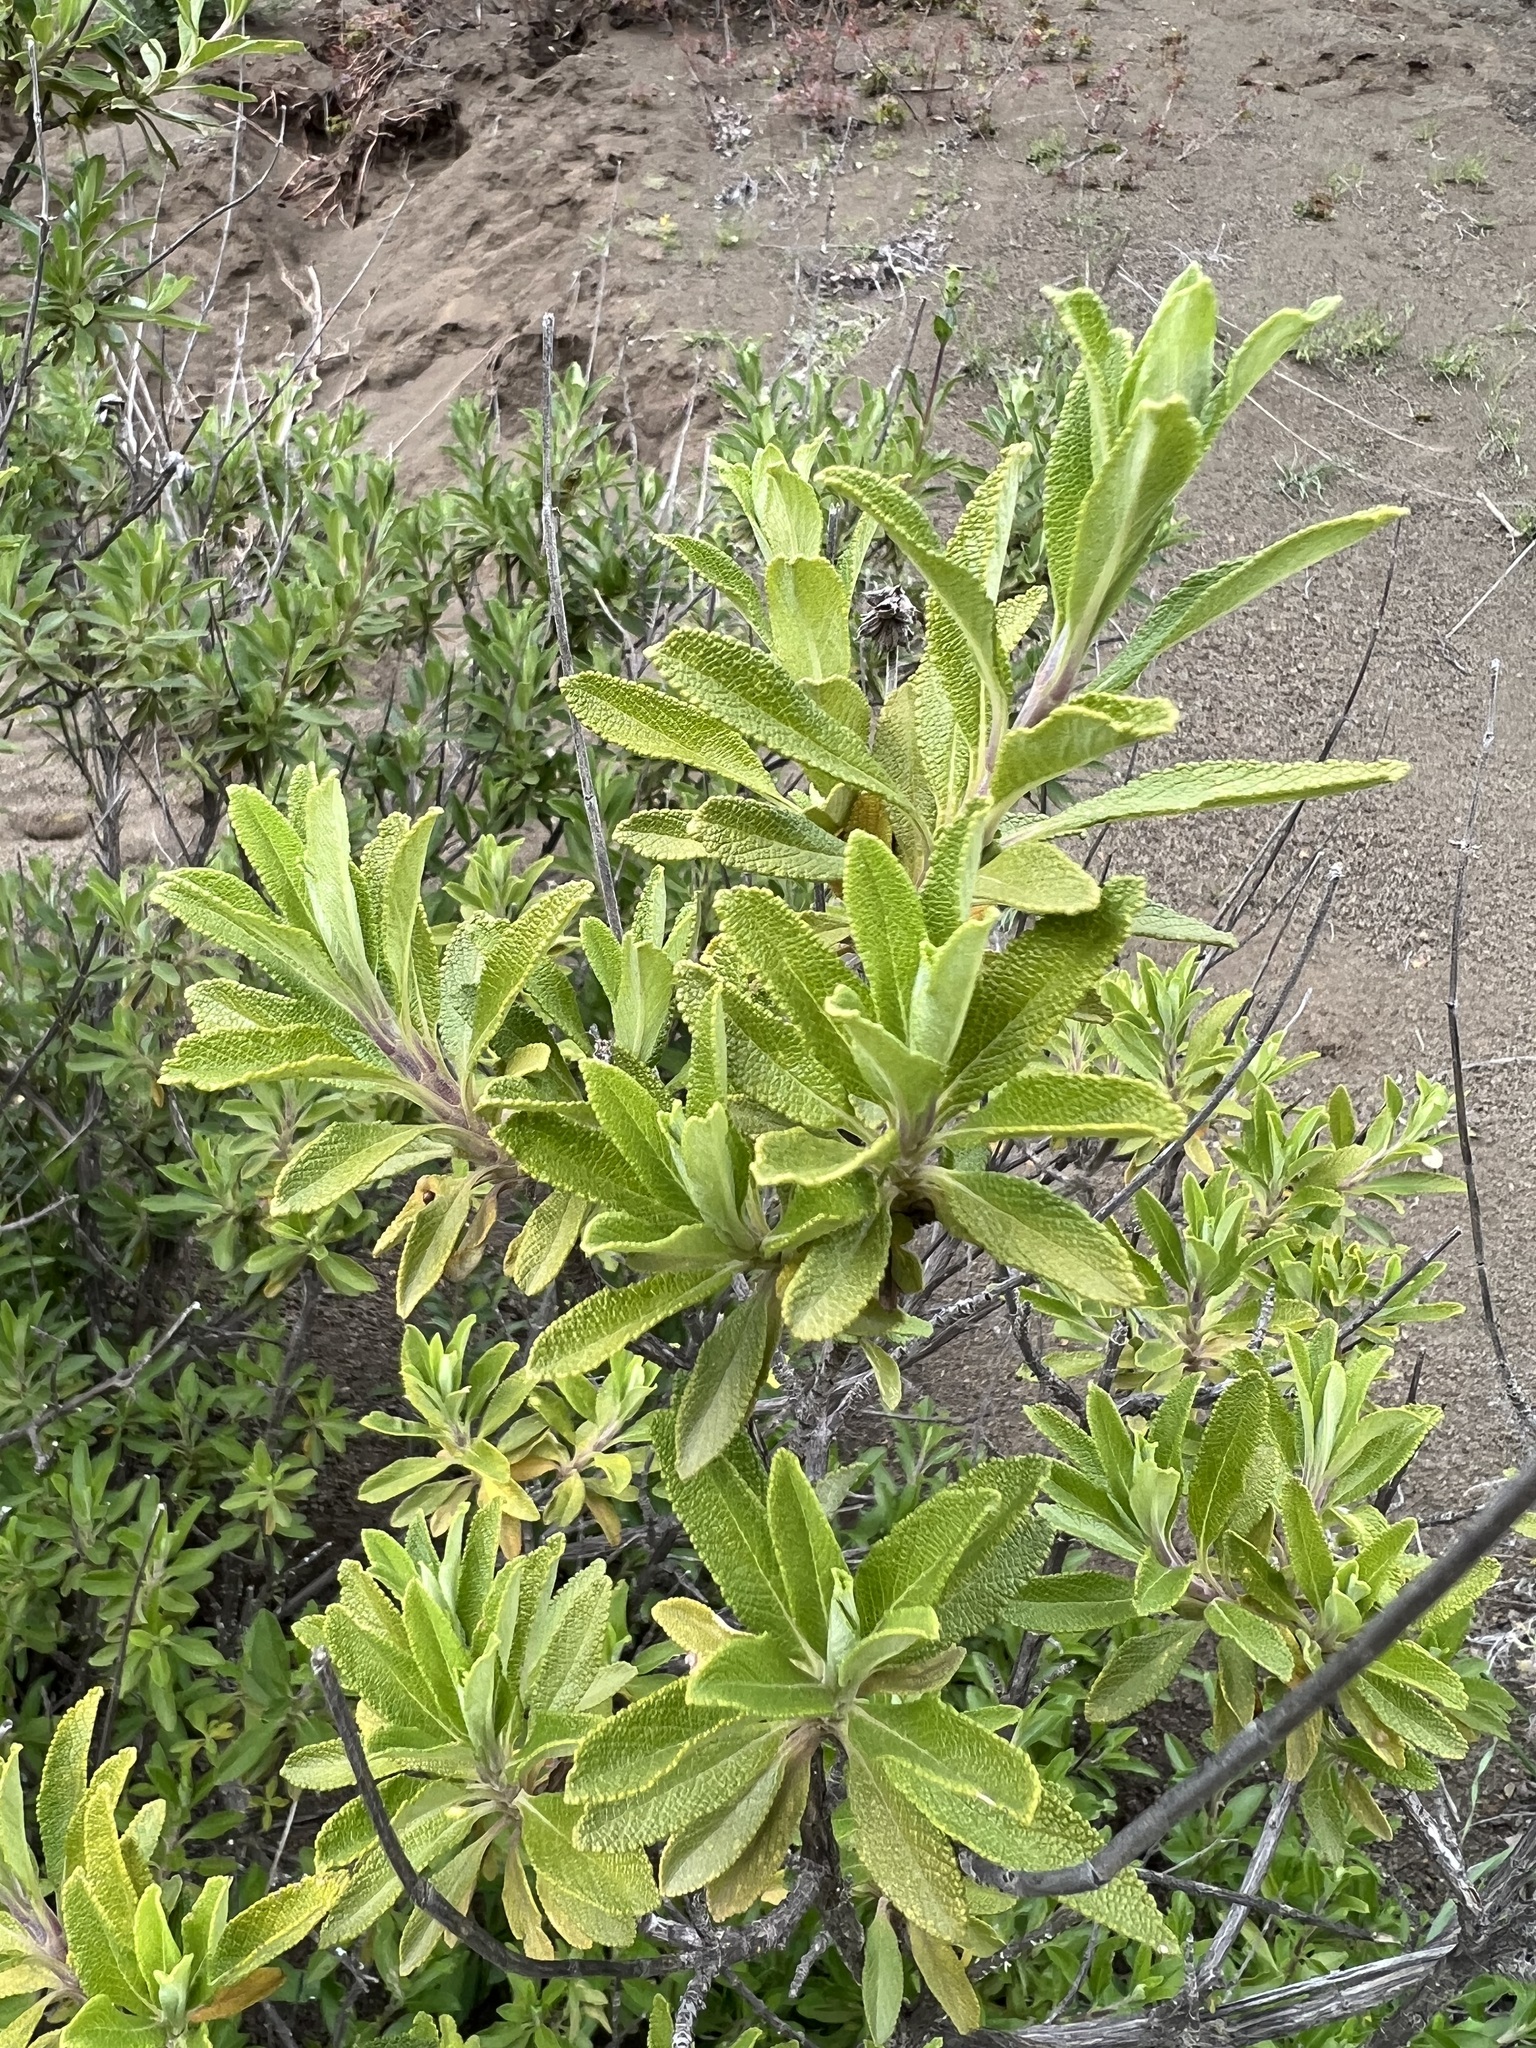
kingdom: Plantae
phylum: Tracheophyta
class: Magnoliopsida
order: Lamiales
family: Lamiaceae
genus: Salvia
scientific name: Salvia mellifera
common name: Black sage
